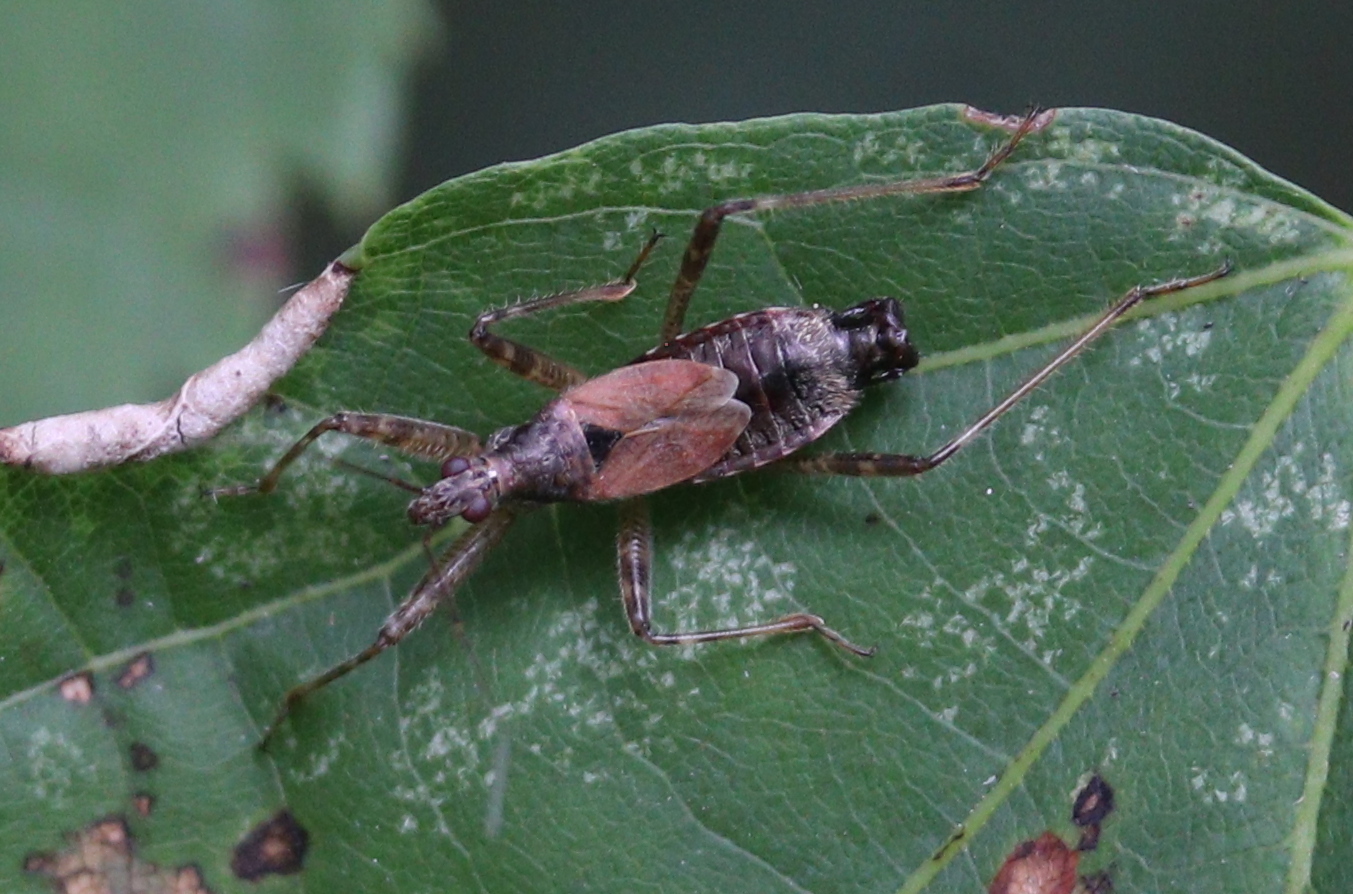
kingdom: Animalia
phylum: Arthropoda
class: Insecta
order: Hemiptera
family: Nabidae
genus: Himacerus
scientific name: Himacerus apterus
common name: Tree damsel bug
